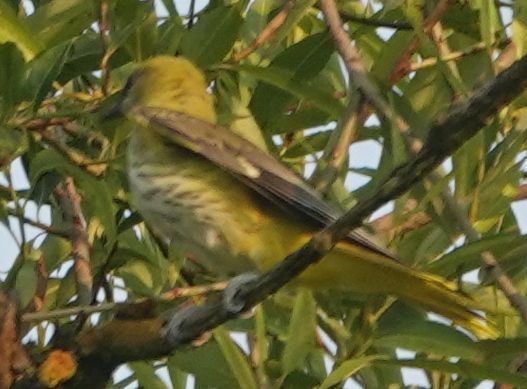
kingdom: Animalia
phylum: Chordata
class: Aves
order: Passeriformes
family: Oriolidae
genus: Oriolus
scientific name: Oriolus oriolus
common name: Eurasian golden oriole
